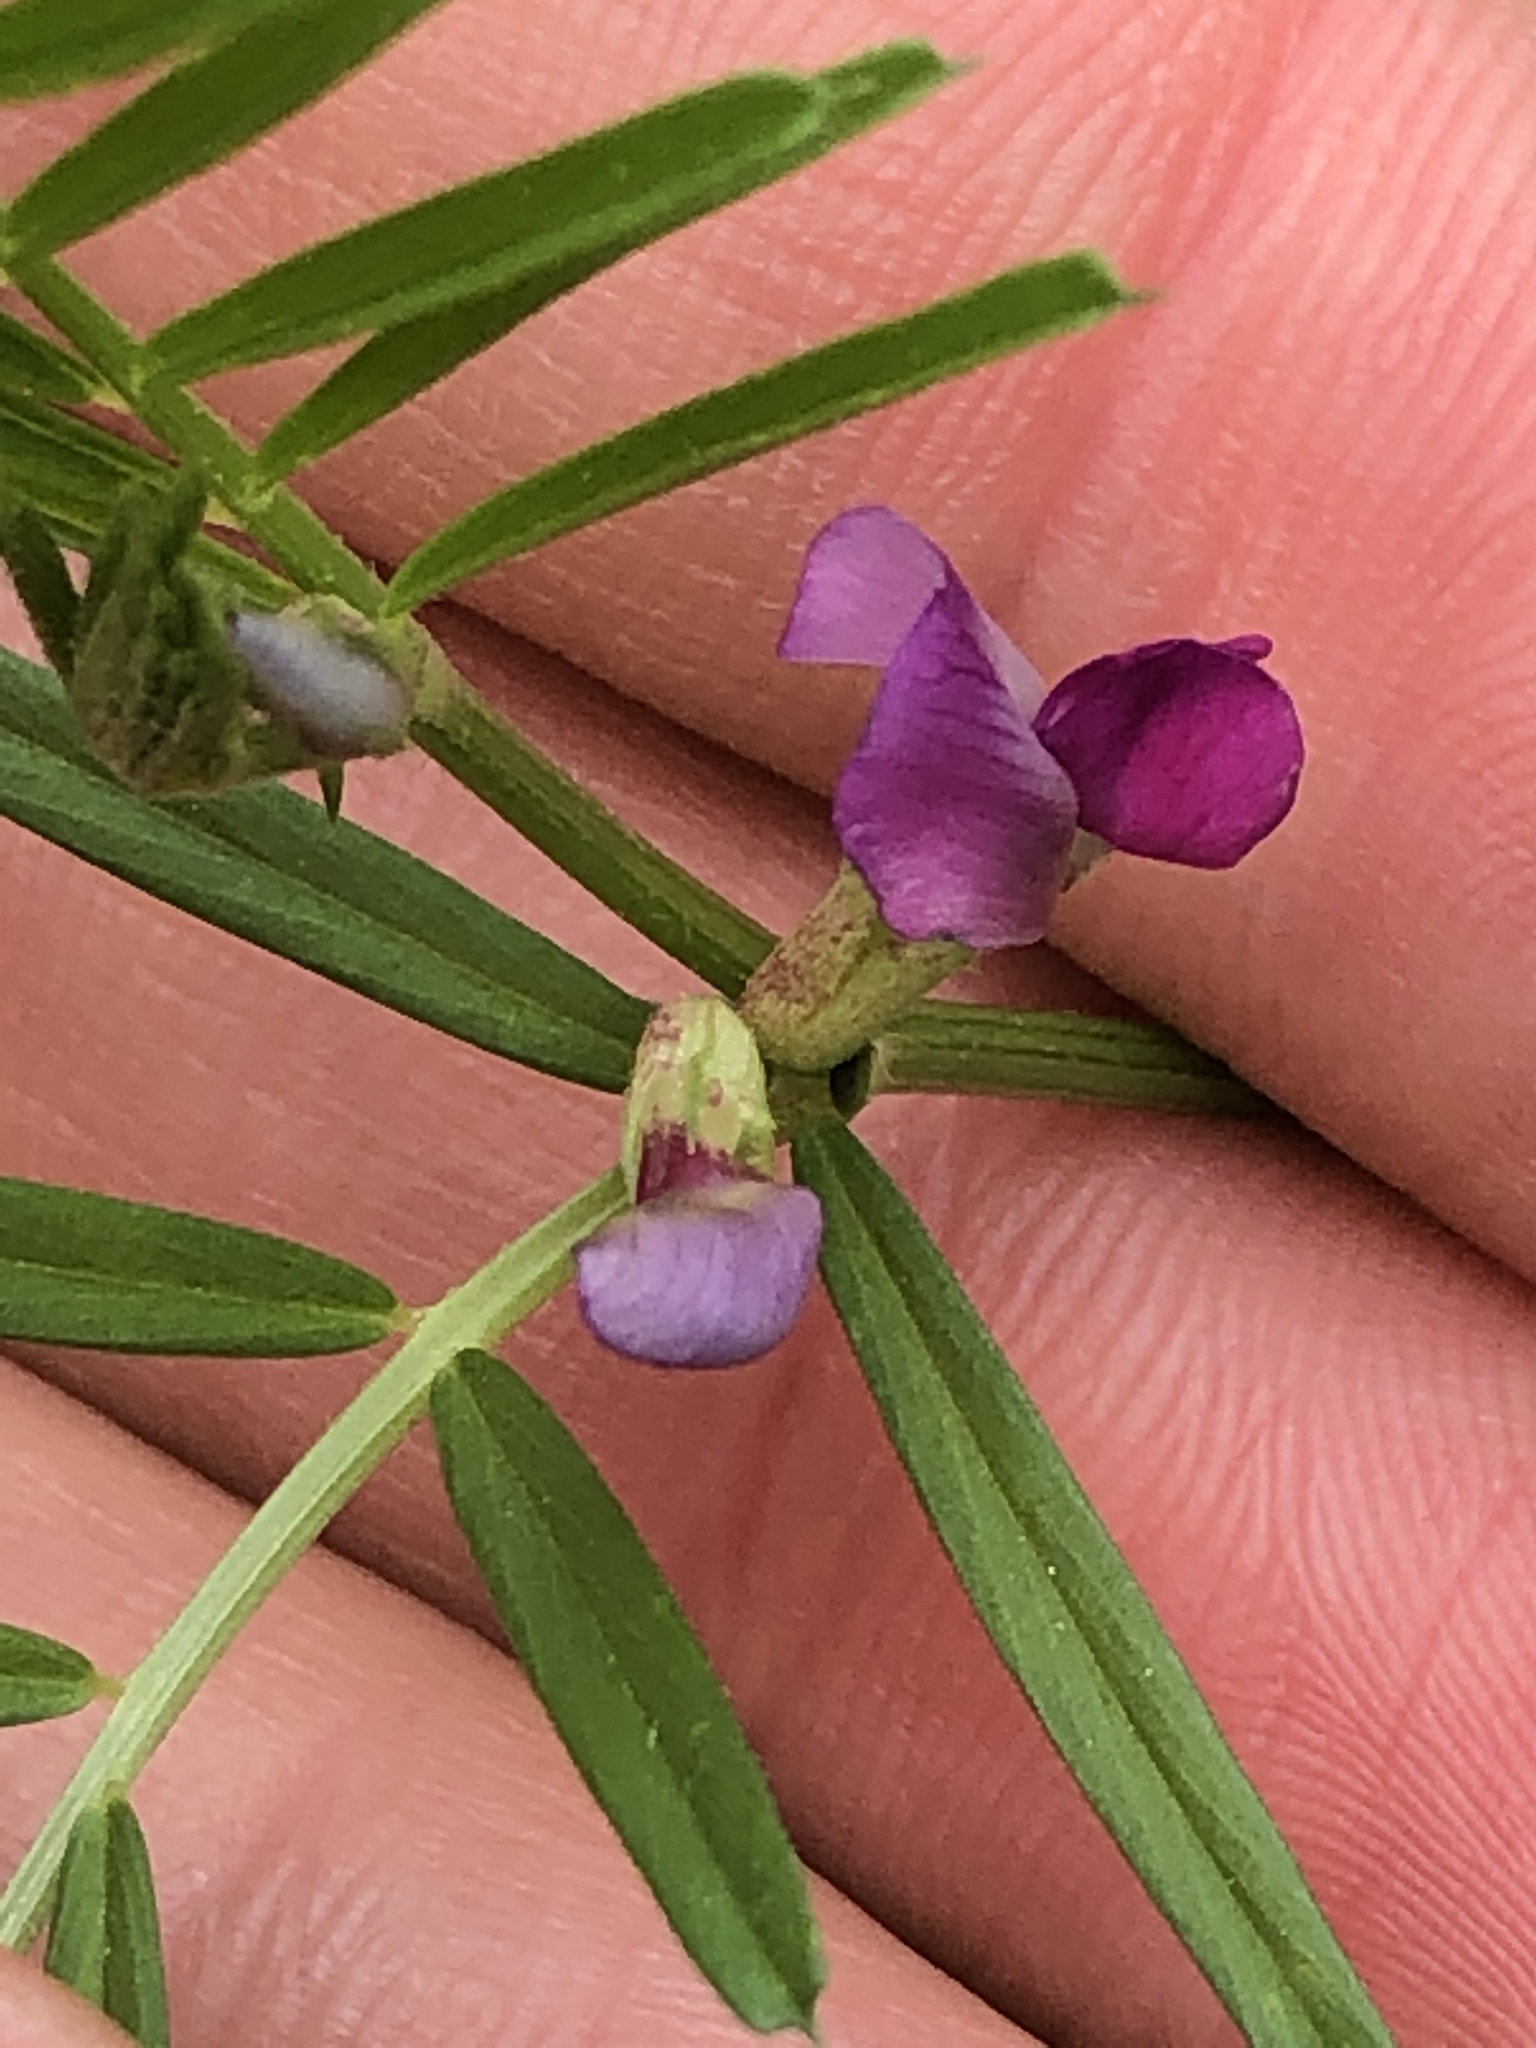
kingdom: Plantae
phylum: Tracheophyta
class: Magnoliopsida
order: Fabales
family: Fabaceae
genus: Vicia
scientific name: Vicia sativa
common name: Garden vetch
